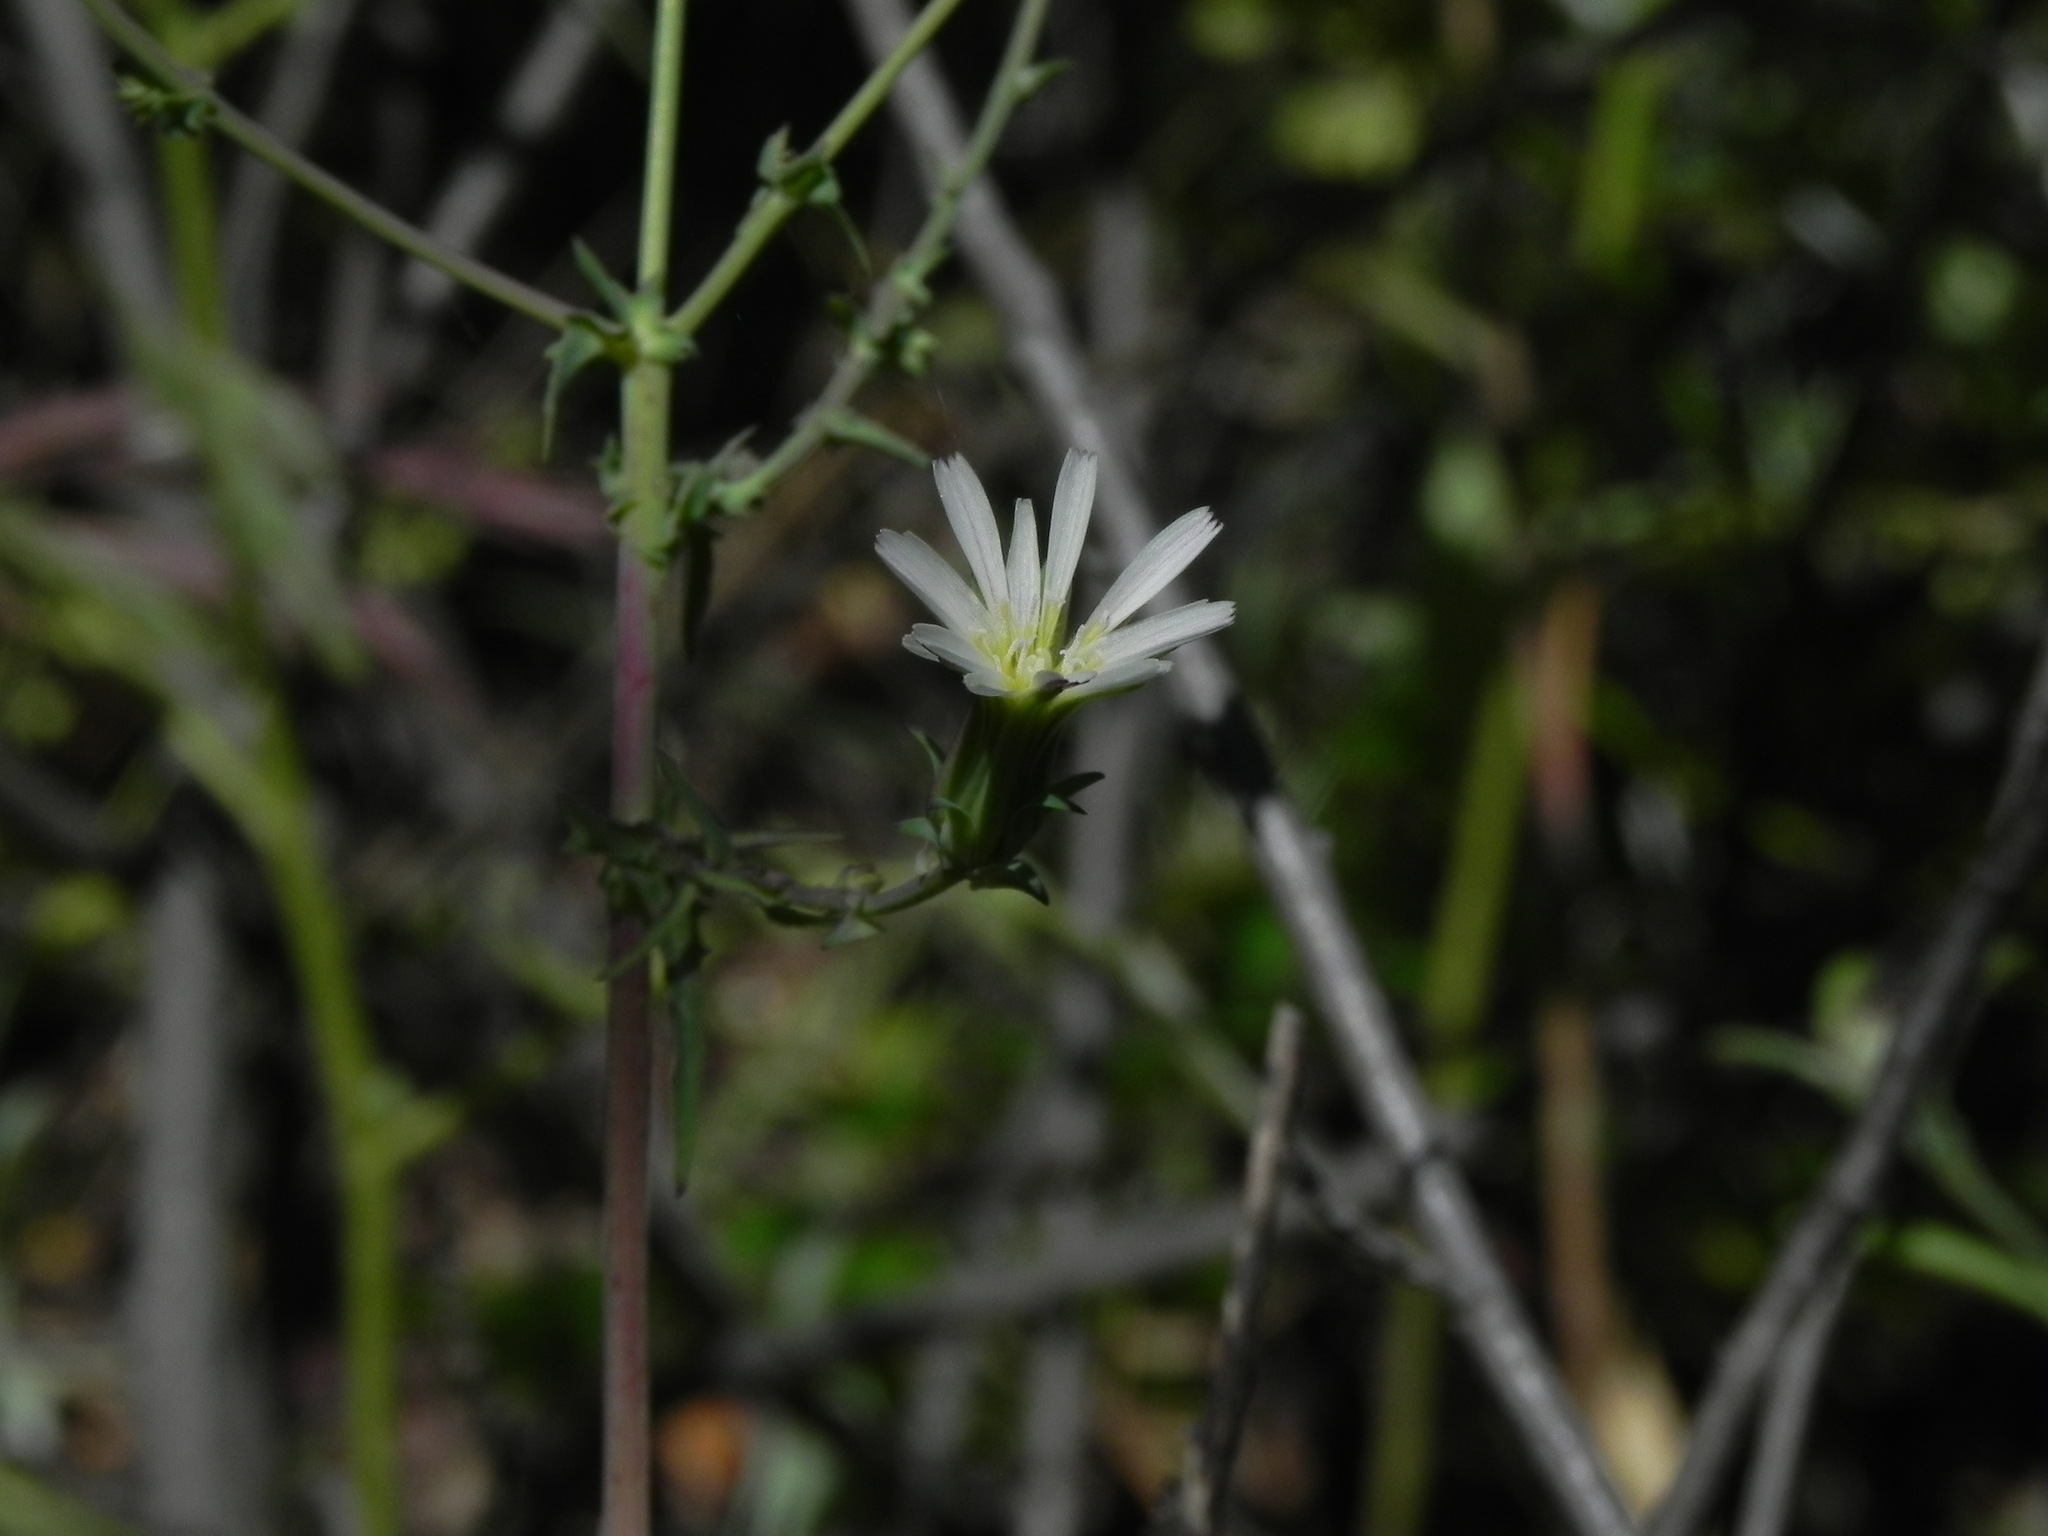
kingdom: Plantae
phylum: Tracheophyta
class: Magnoliopsida
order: Asterales
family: Asteraceae
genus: Rafinesquia
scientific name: Rafinesquia californica
